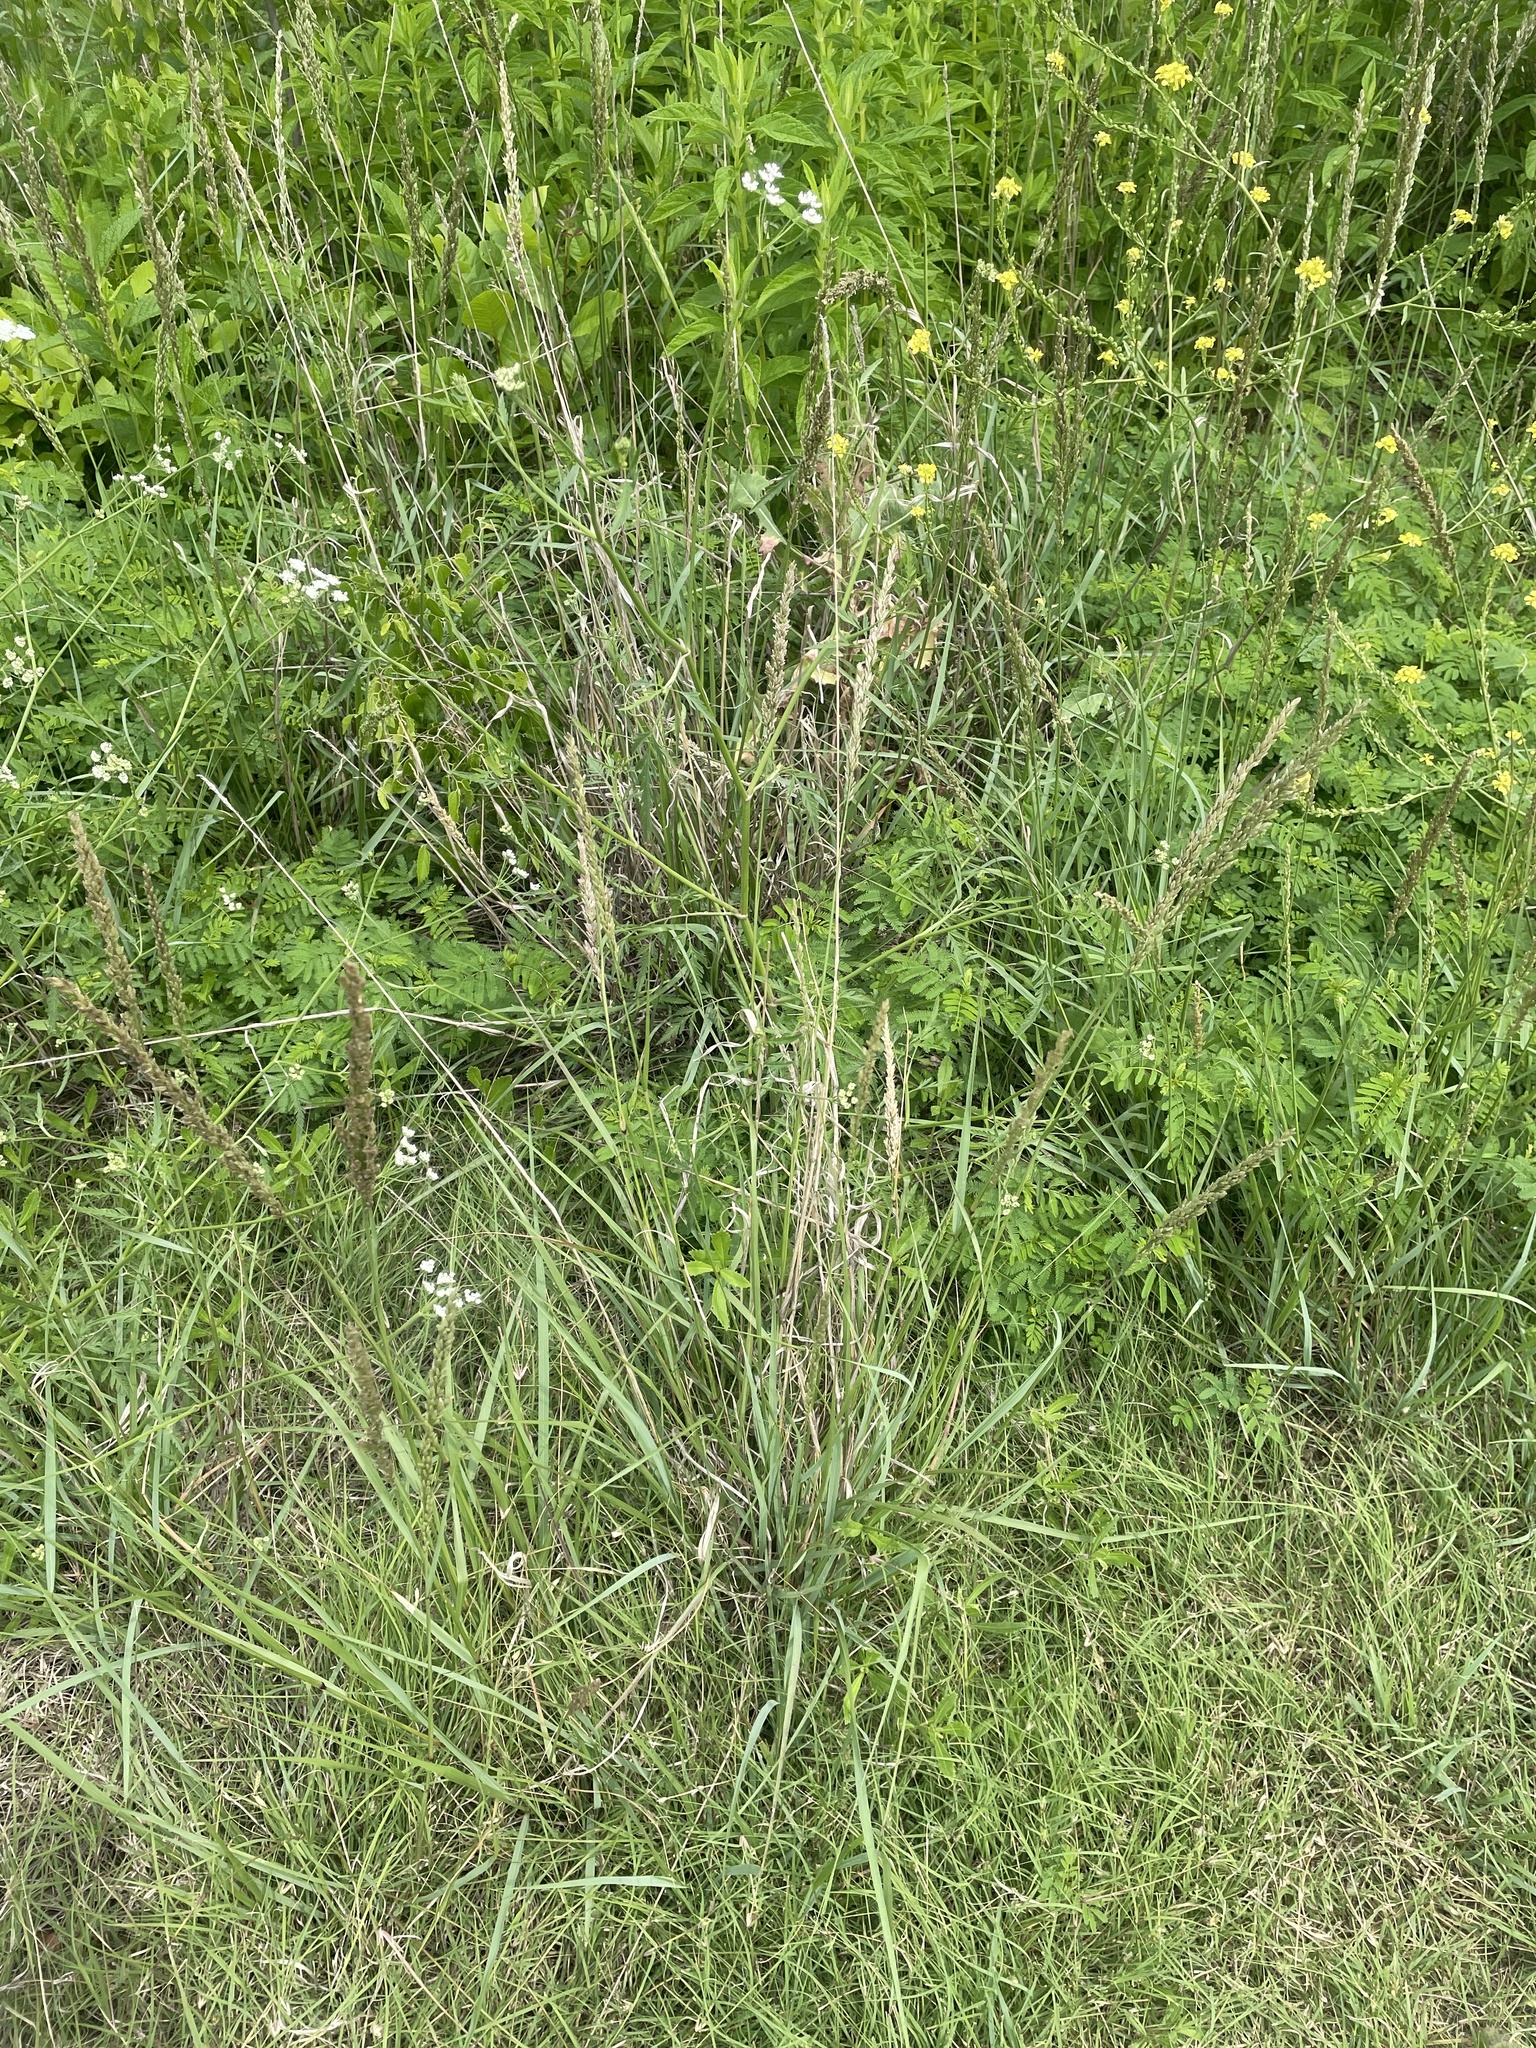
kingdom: Plantae
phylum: Tracheophyta
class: Liliopsida
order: Poales
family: Poaceae
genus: Tridens
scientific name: Tridens albescens
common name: White tridens
